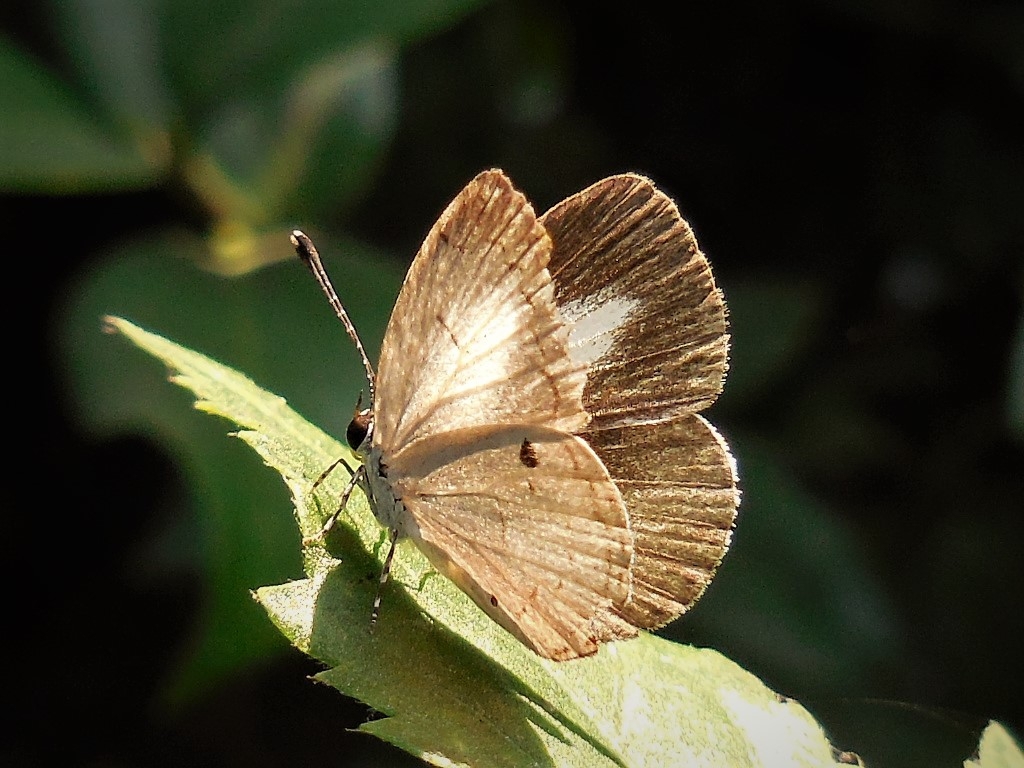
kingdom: Animalia
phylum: Arthropoda
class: Insecta
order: Lepidoptera
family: Lycaenidae
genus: Neopithecops
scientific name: Neopithecops zalmora
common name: Quaker
